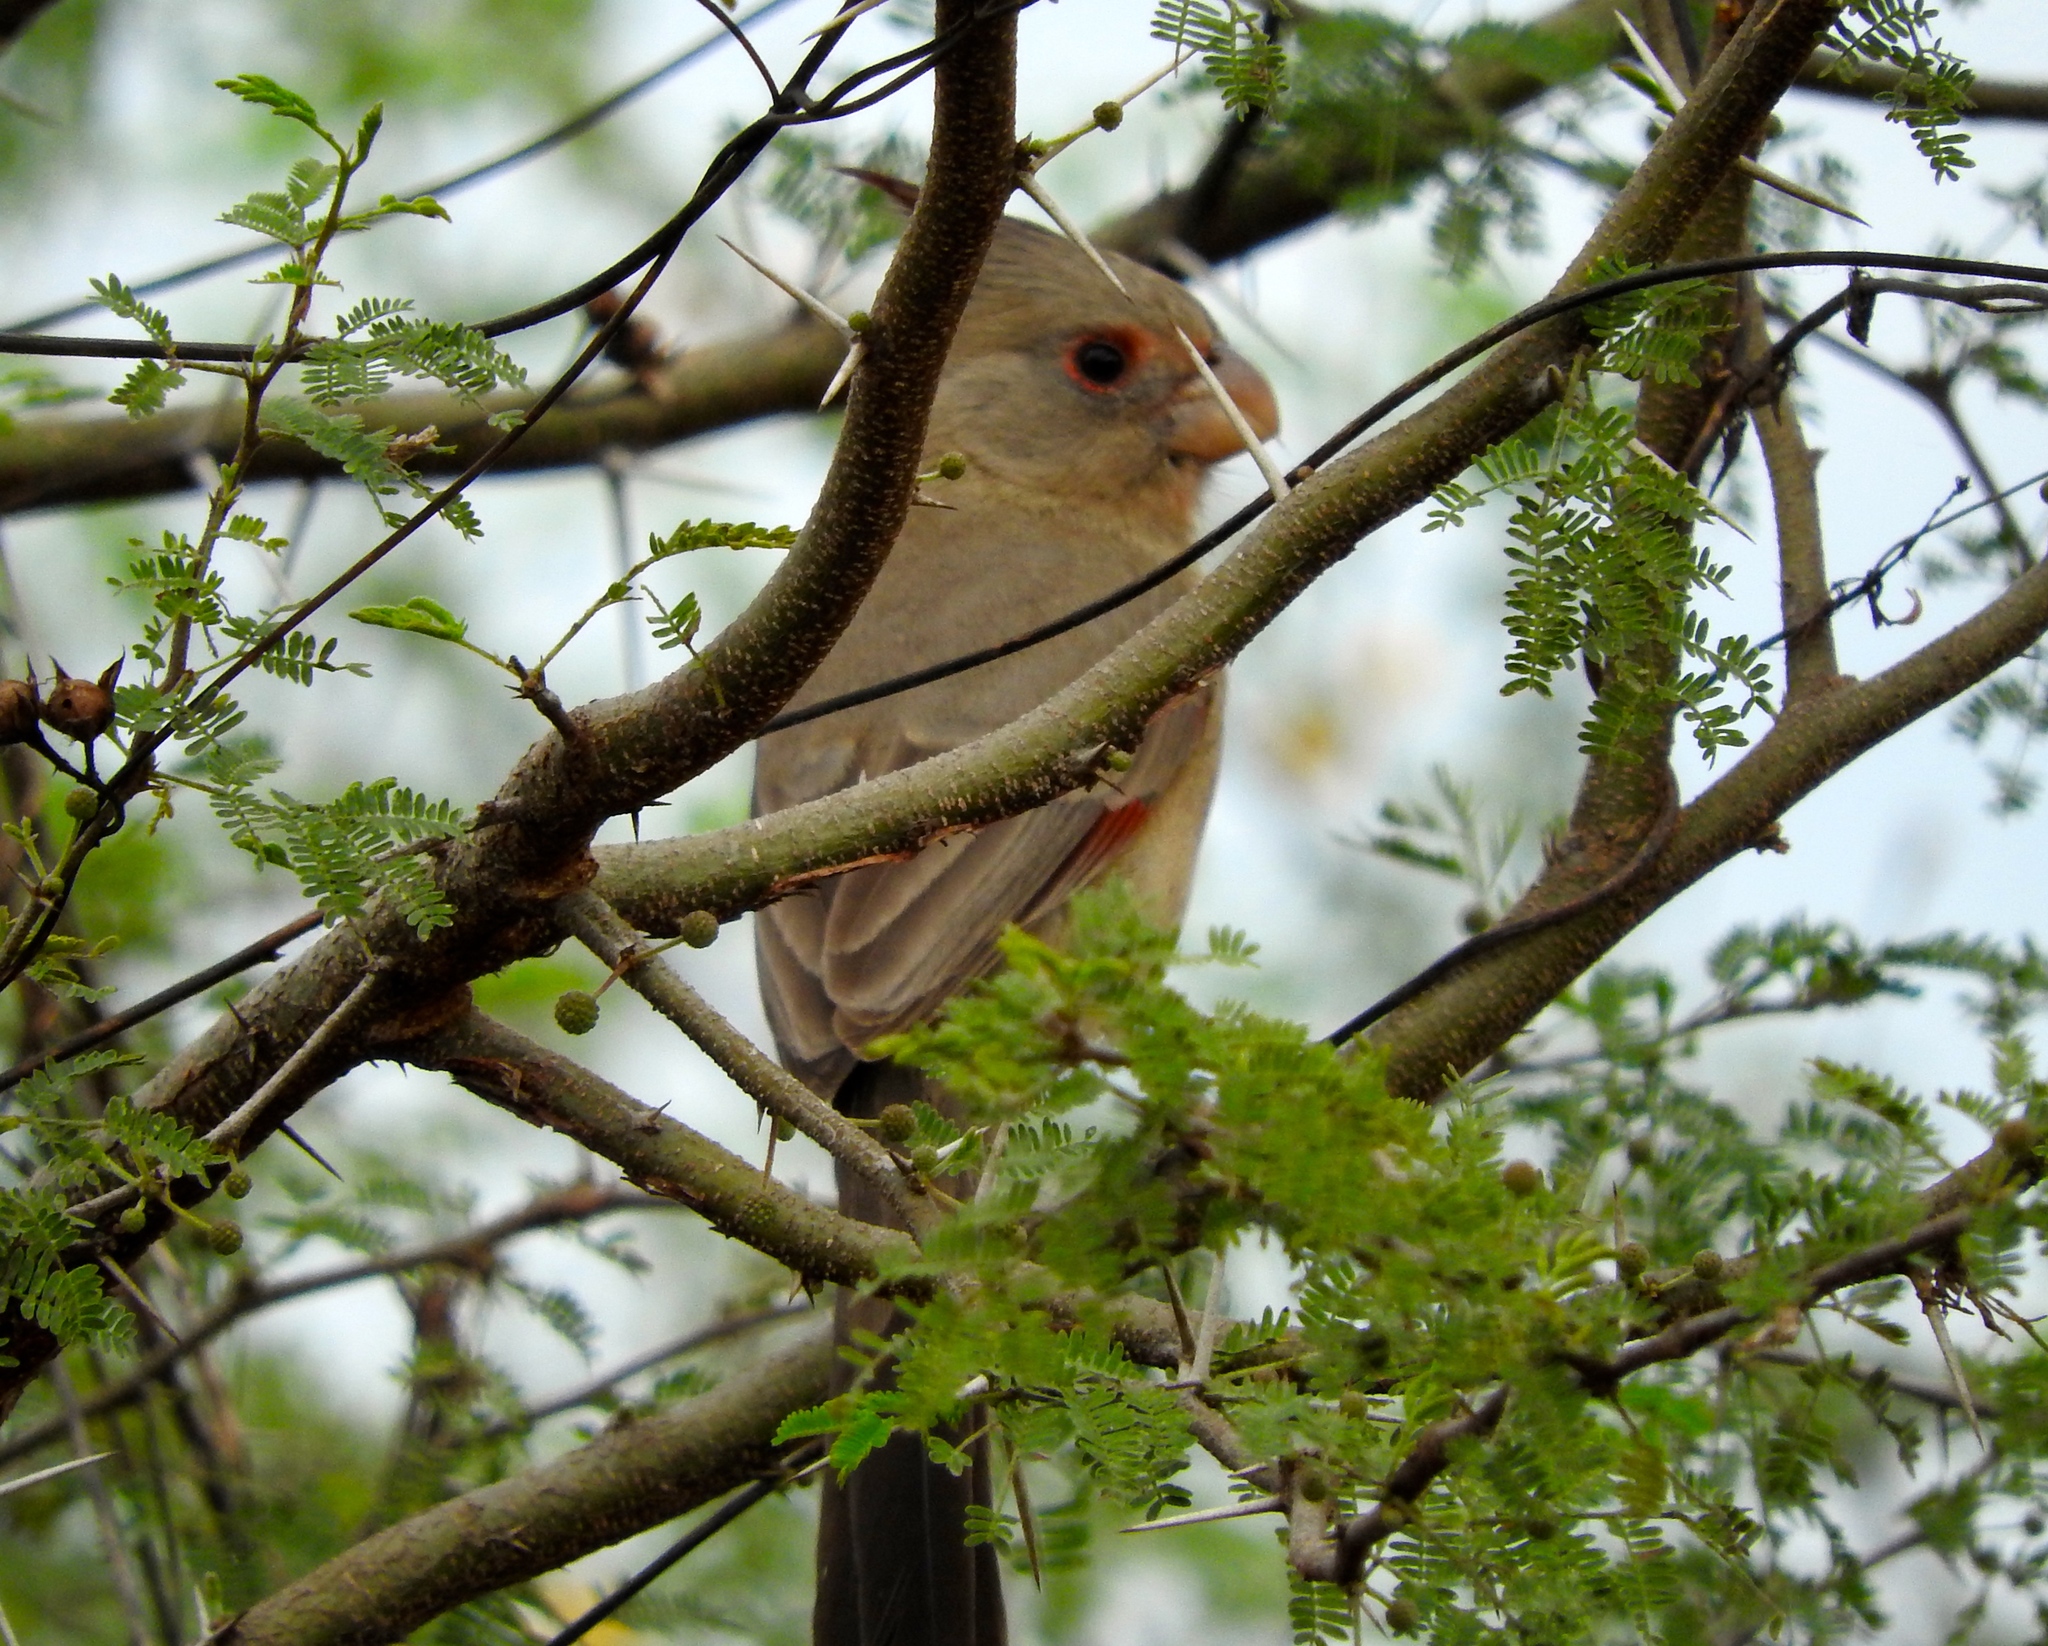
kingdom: Animalia
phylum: Chordata
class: Aves
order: Passeriformes
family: Cardinalidae
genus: Cardinalis
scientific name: Cardinalis sinuatus
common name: Pyrrhuloxia
